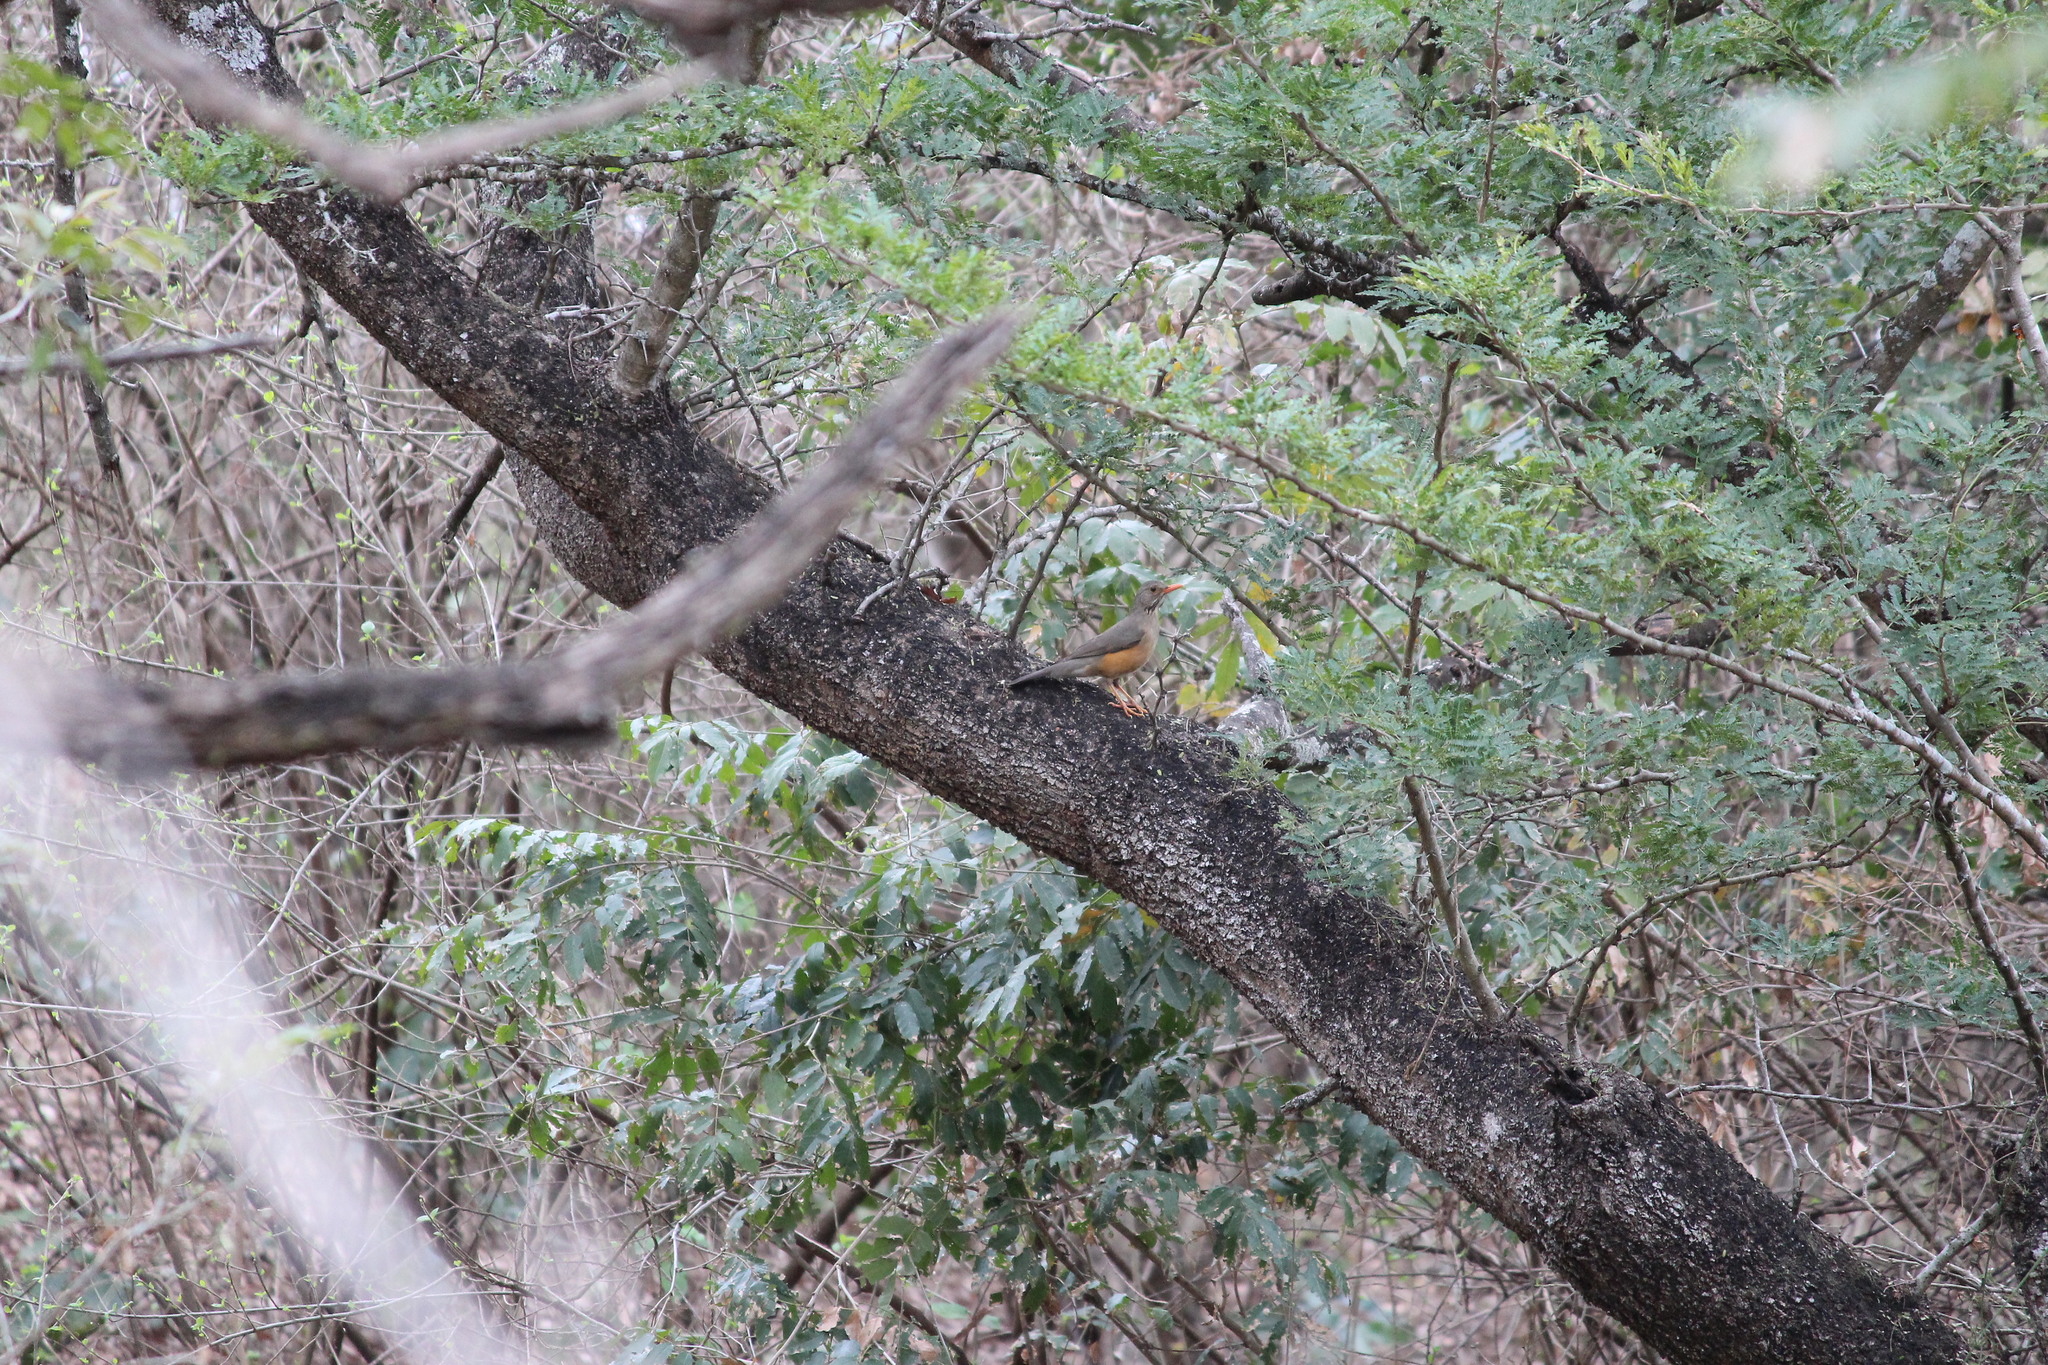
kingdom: Animalia
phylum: Chordata
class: Aves
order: Passeriformes
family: Turdidae
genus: Turdus
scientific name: Turdus libonyana
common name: Kurrichane thrush
